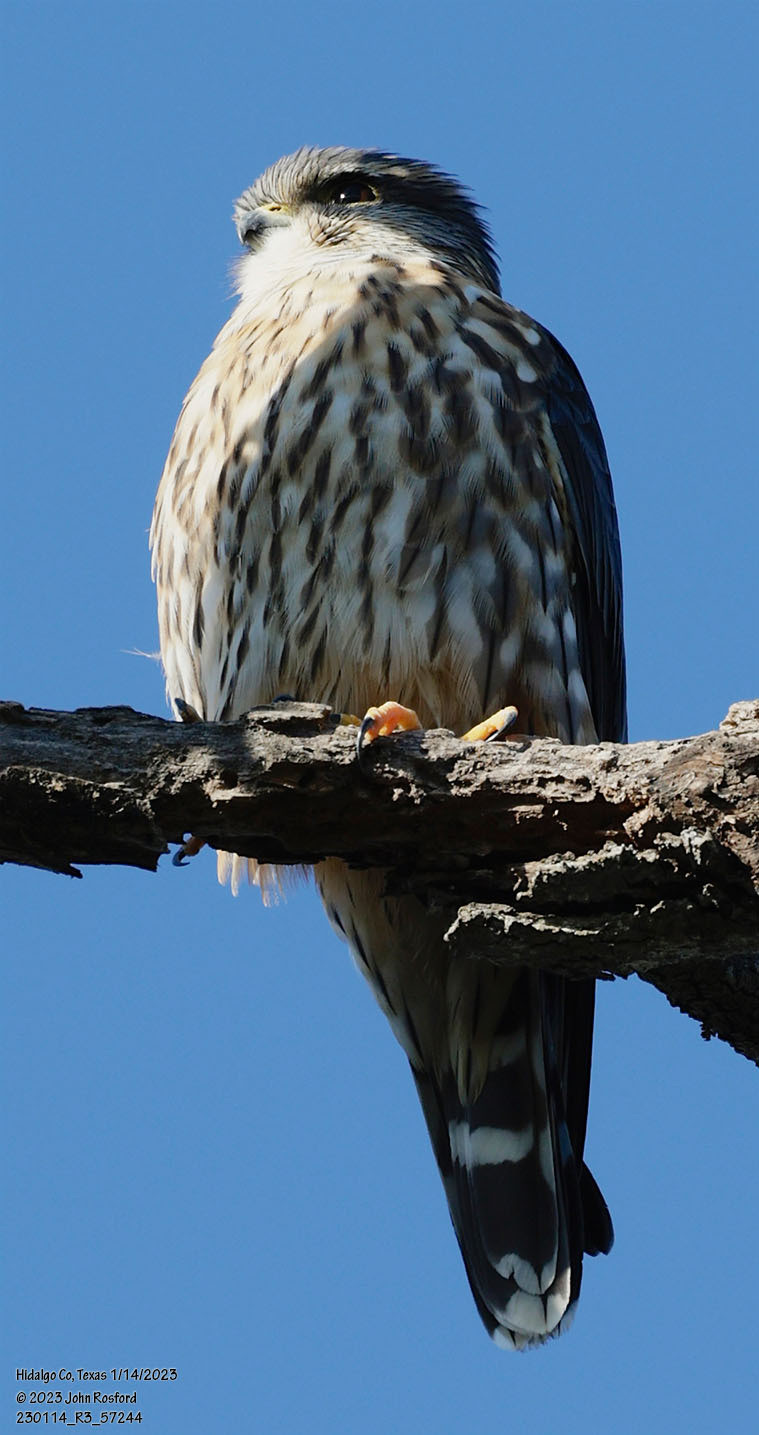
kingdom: Animalia
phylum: Chordata
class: Aves
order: Falconiformes
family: Falconidae
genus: Falco
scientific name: Falco columbarius
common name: Merlin
